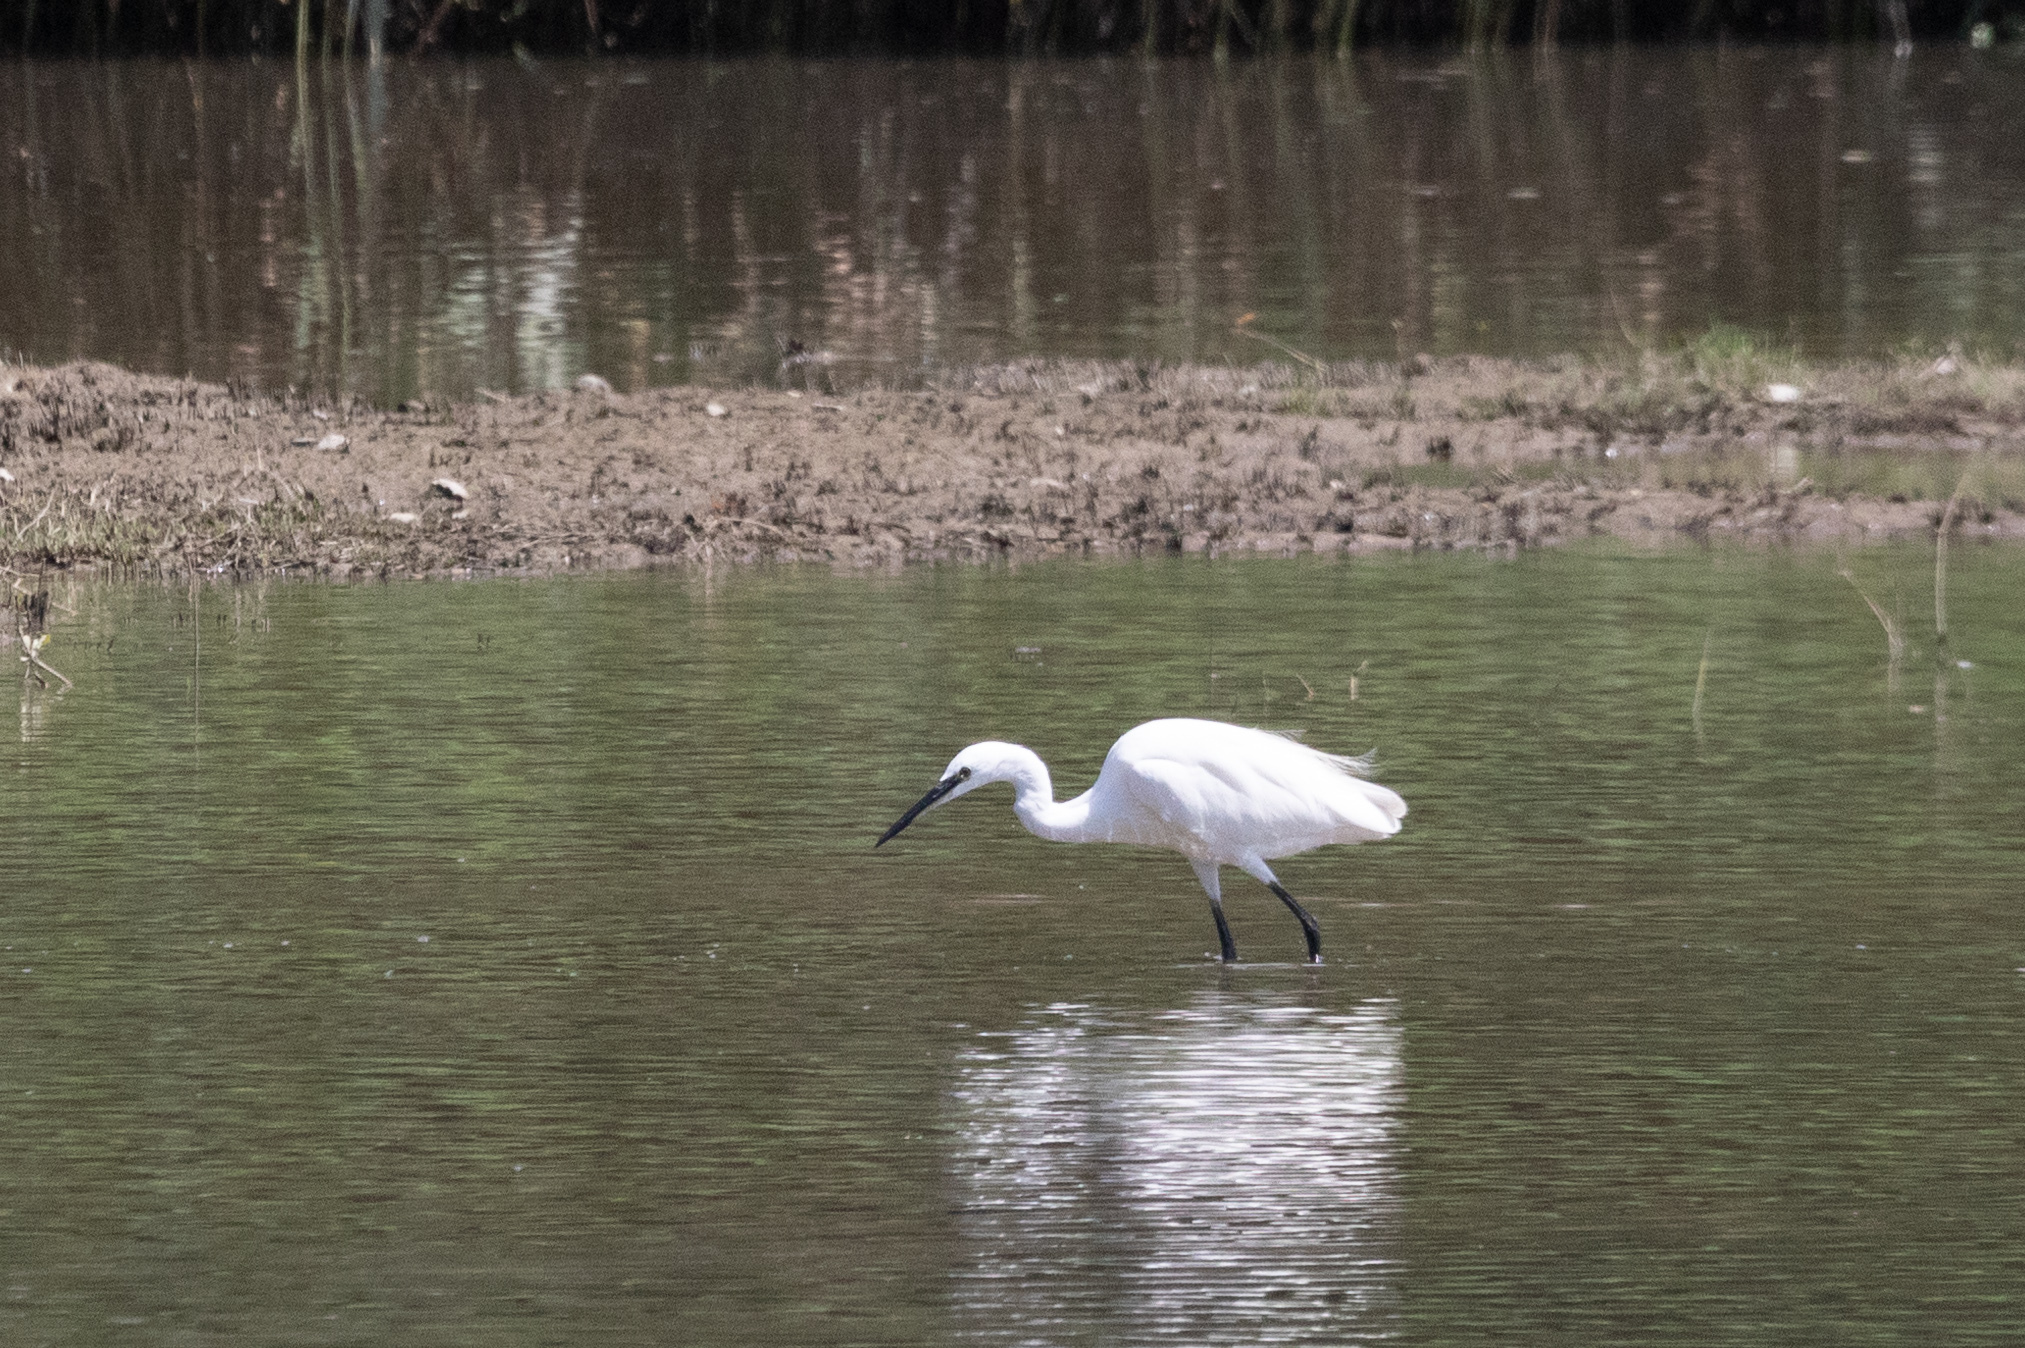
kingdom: Animalia
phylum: Chordata
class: Aves
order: Pelecaniformes
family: Ardeidae
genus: Egretta
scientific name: Egretta garzetta
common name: Little egret
